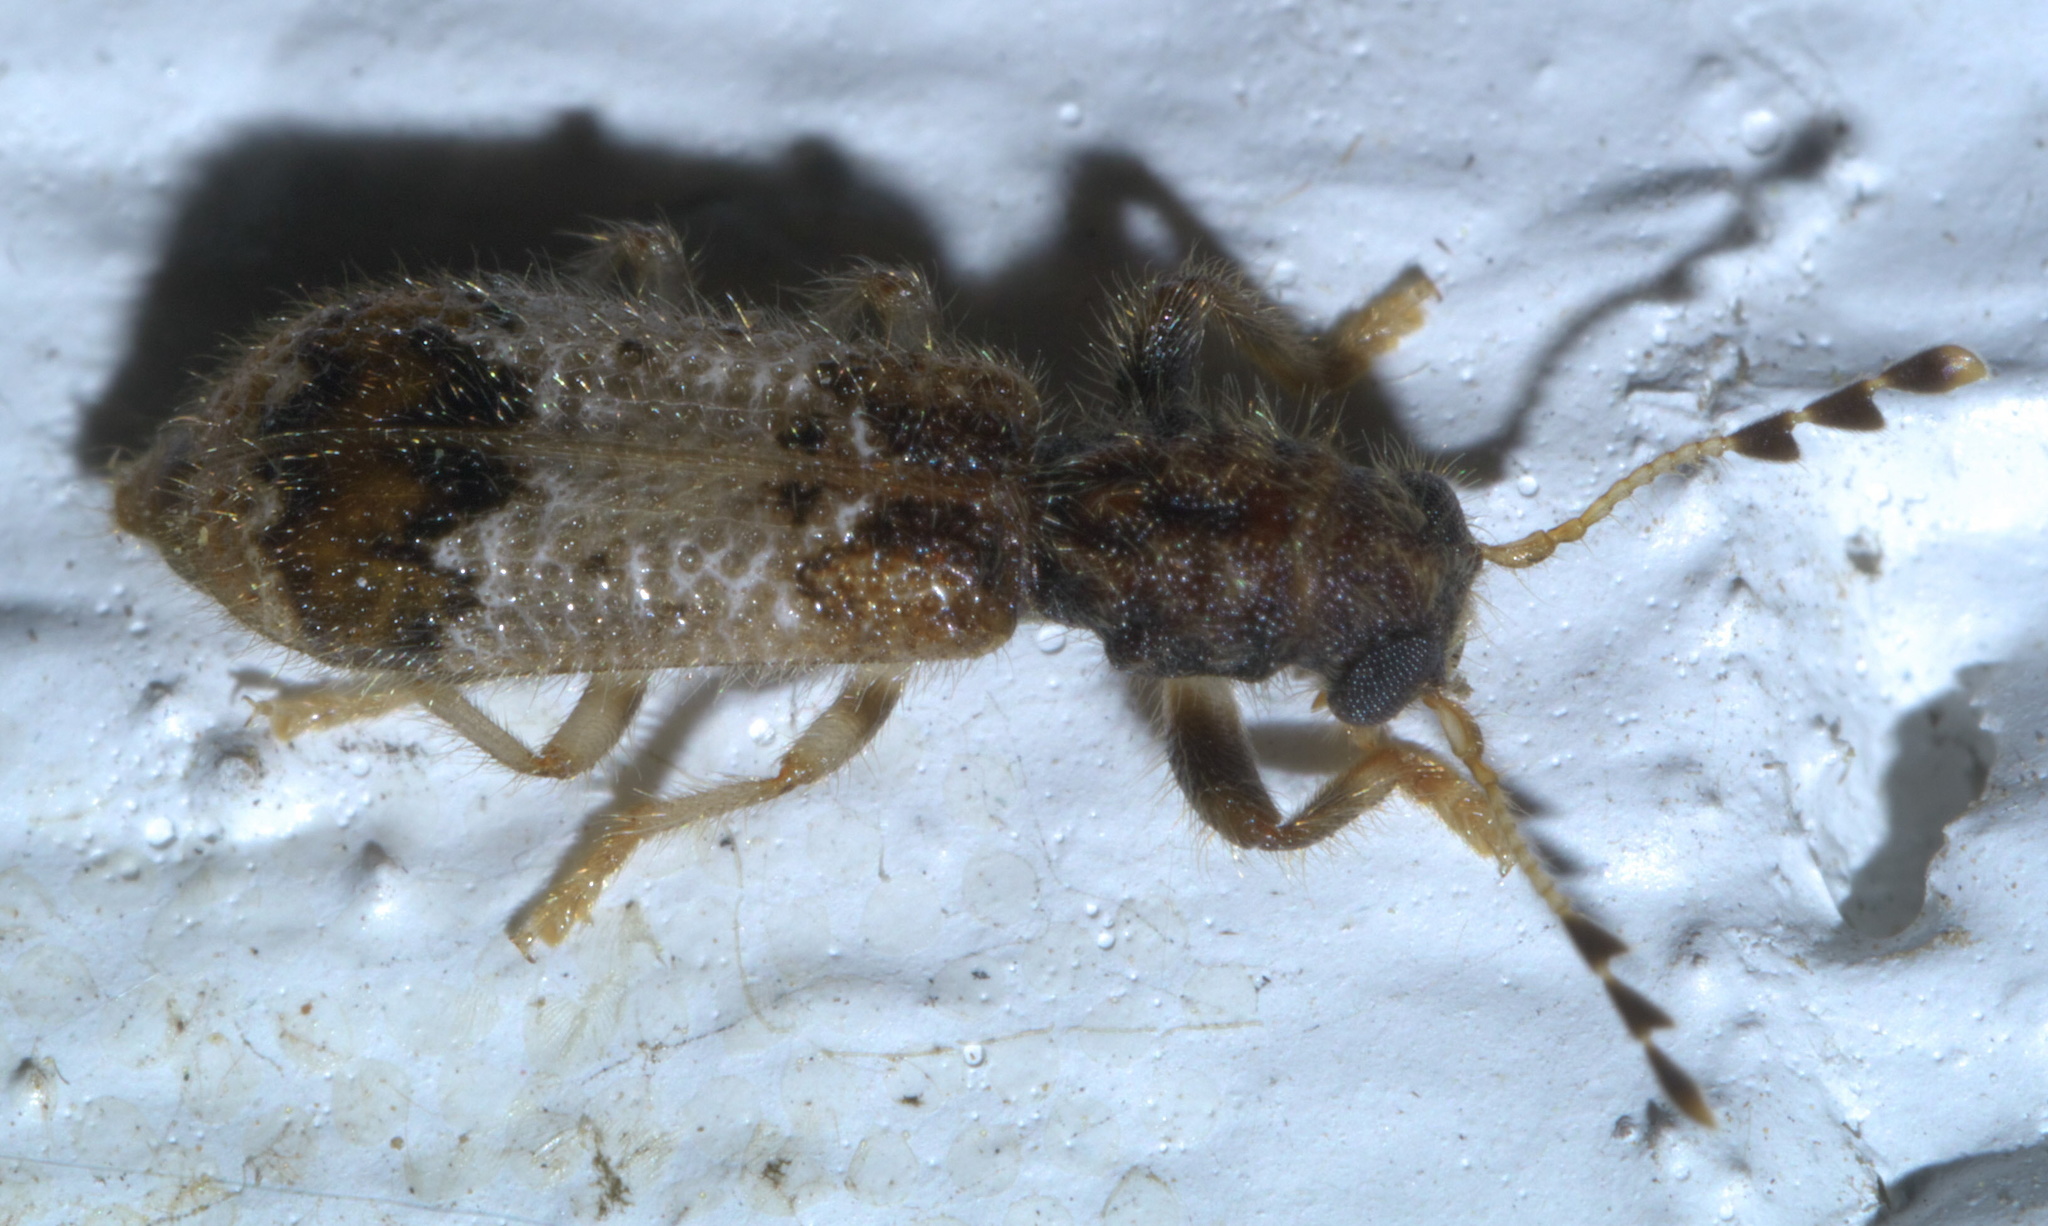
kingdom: Animalia
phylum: Arthropoda
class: Insecta
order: Coleoptera
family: Cleridae
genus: Pelonium
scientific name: Pelonium leucophaeum
